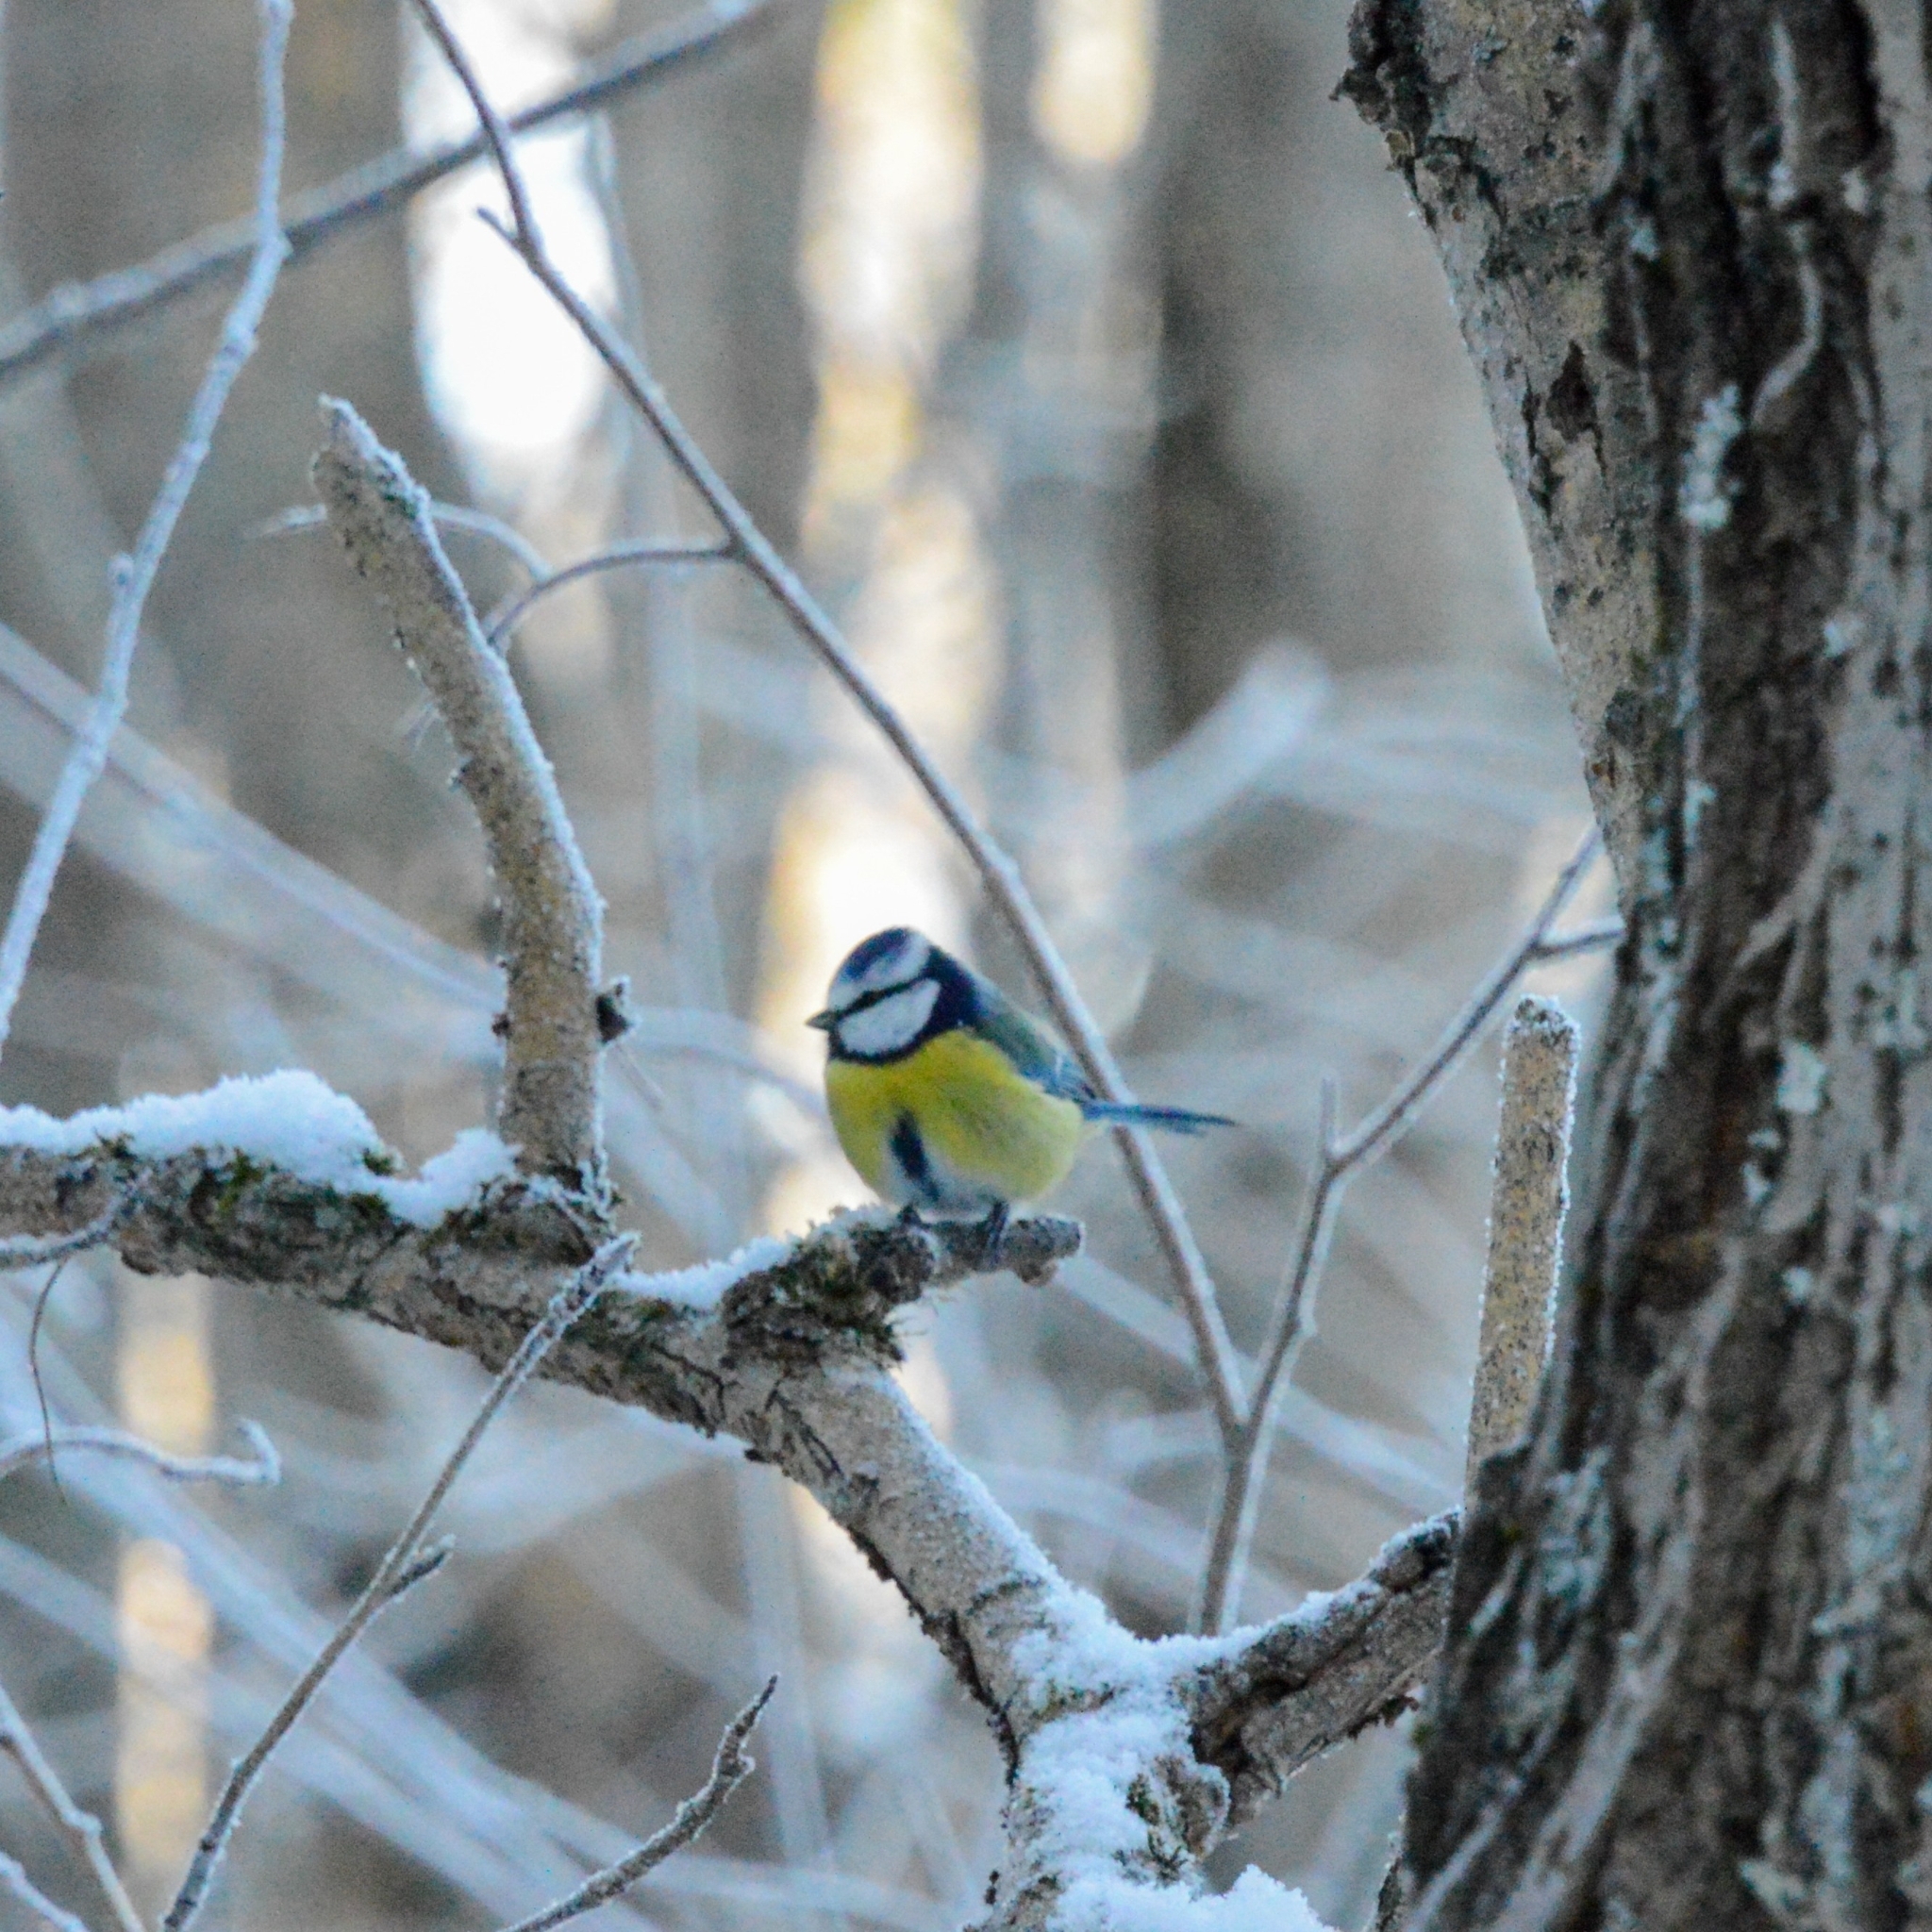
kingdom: Animalia
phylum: Chordata
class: Aves
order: Passeriformes
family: Paridae
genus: Cyanistes
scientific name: Cyanistes caeruleus
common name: Eurasian blue tit
